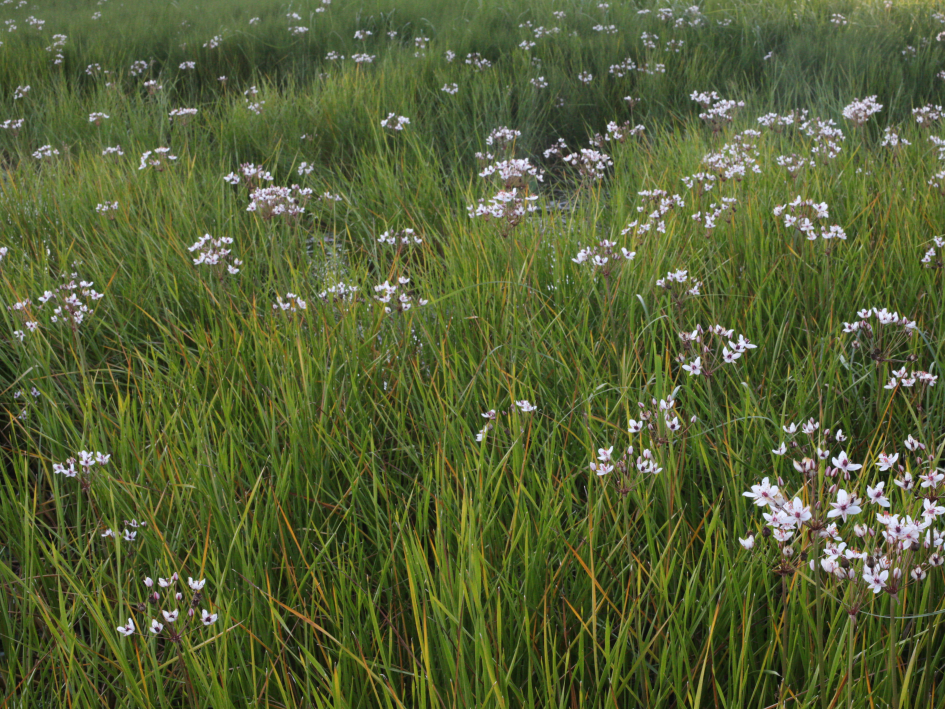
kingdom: Plantae
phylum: Tracheophyta
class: Liliopsida
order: Alismatales
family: Butomaceae
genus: Butomus
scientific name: Butomus umbellatus
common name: Flowering-rush
